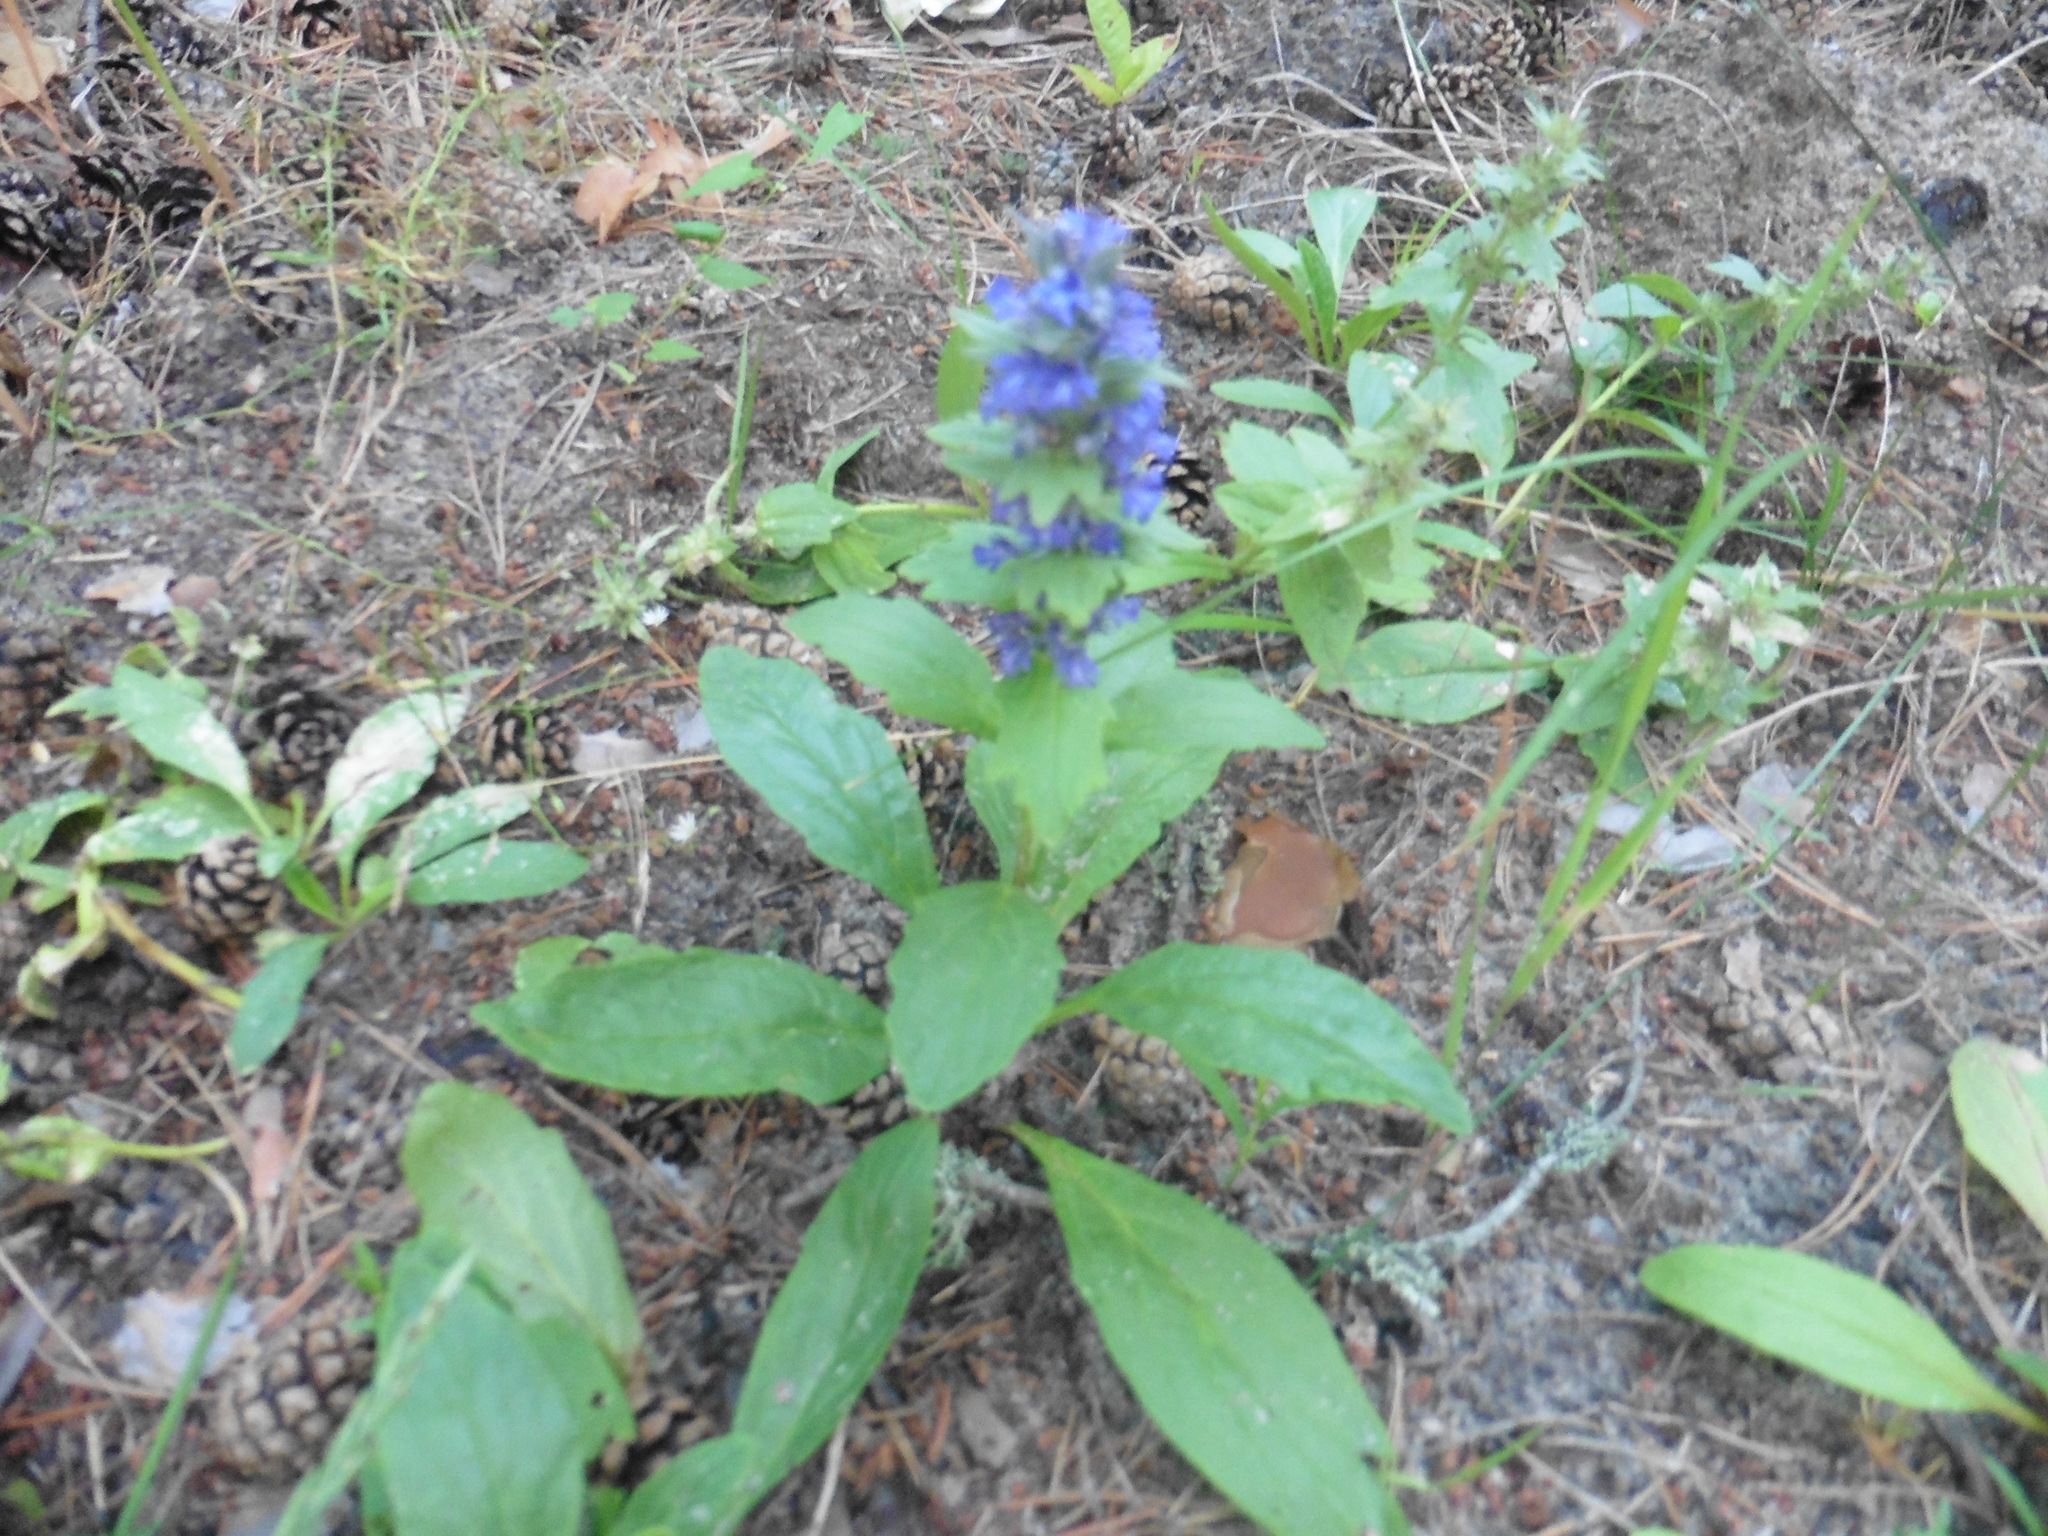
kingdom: Plantae
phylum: Tracheophyta
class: Magnoliopsida
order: Lamiales
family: Lamiaceae
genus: Ajuga
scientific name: Ajuga genevensis
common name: Blue bugle
